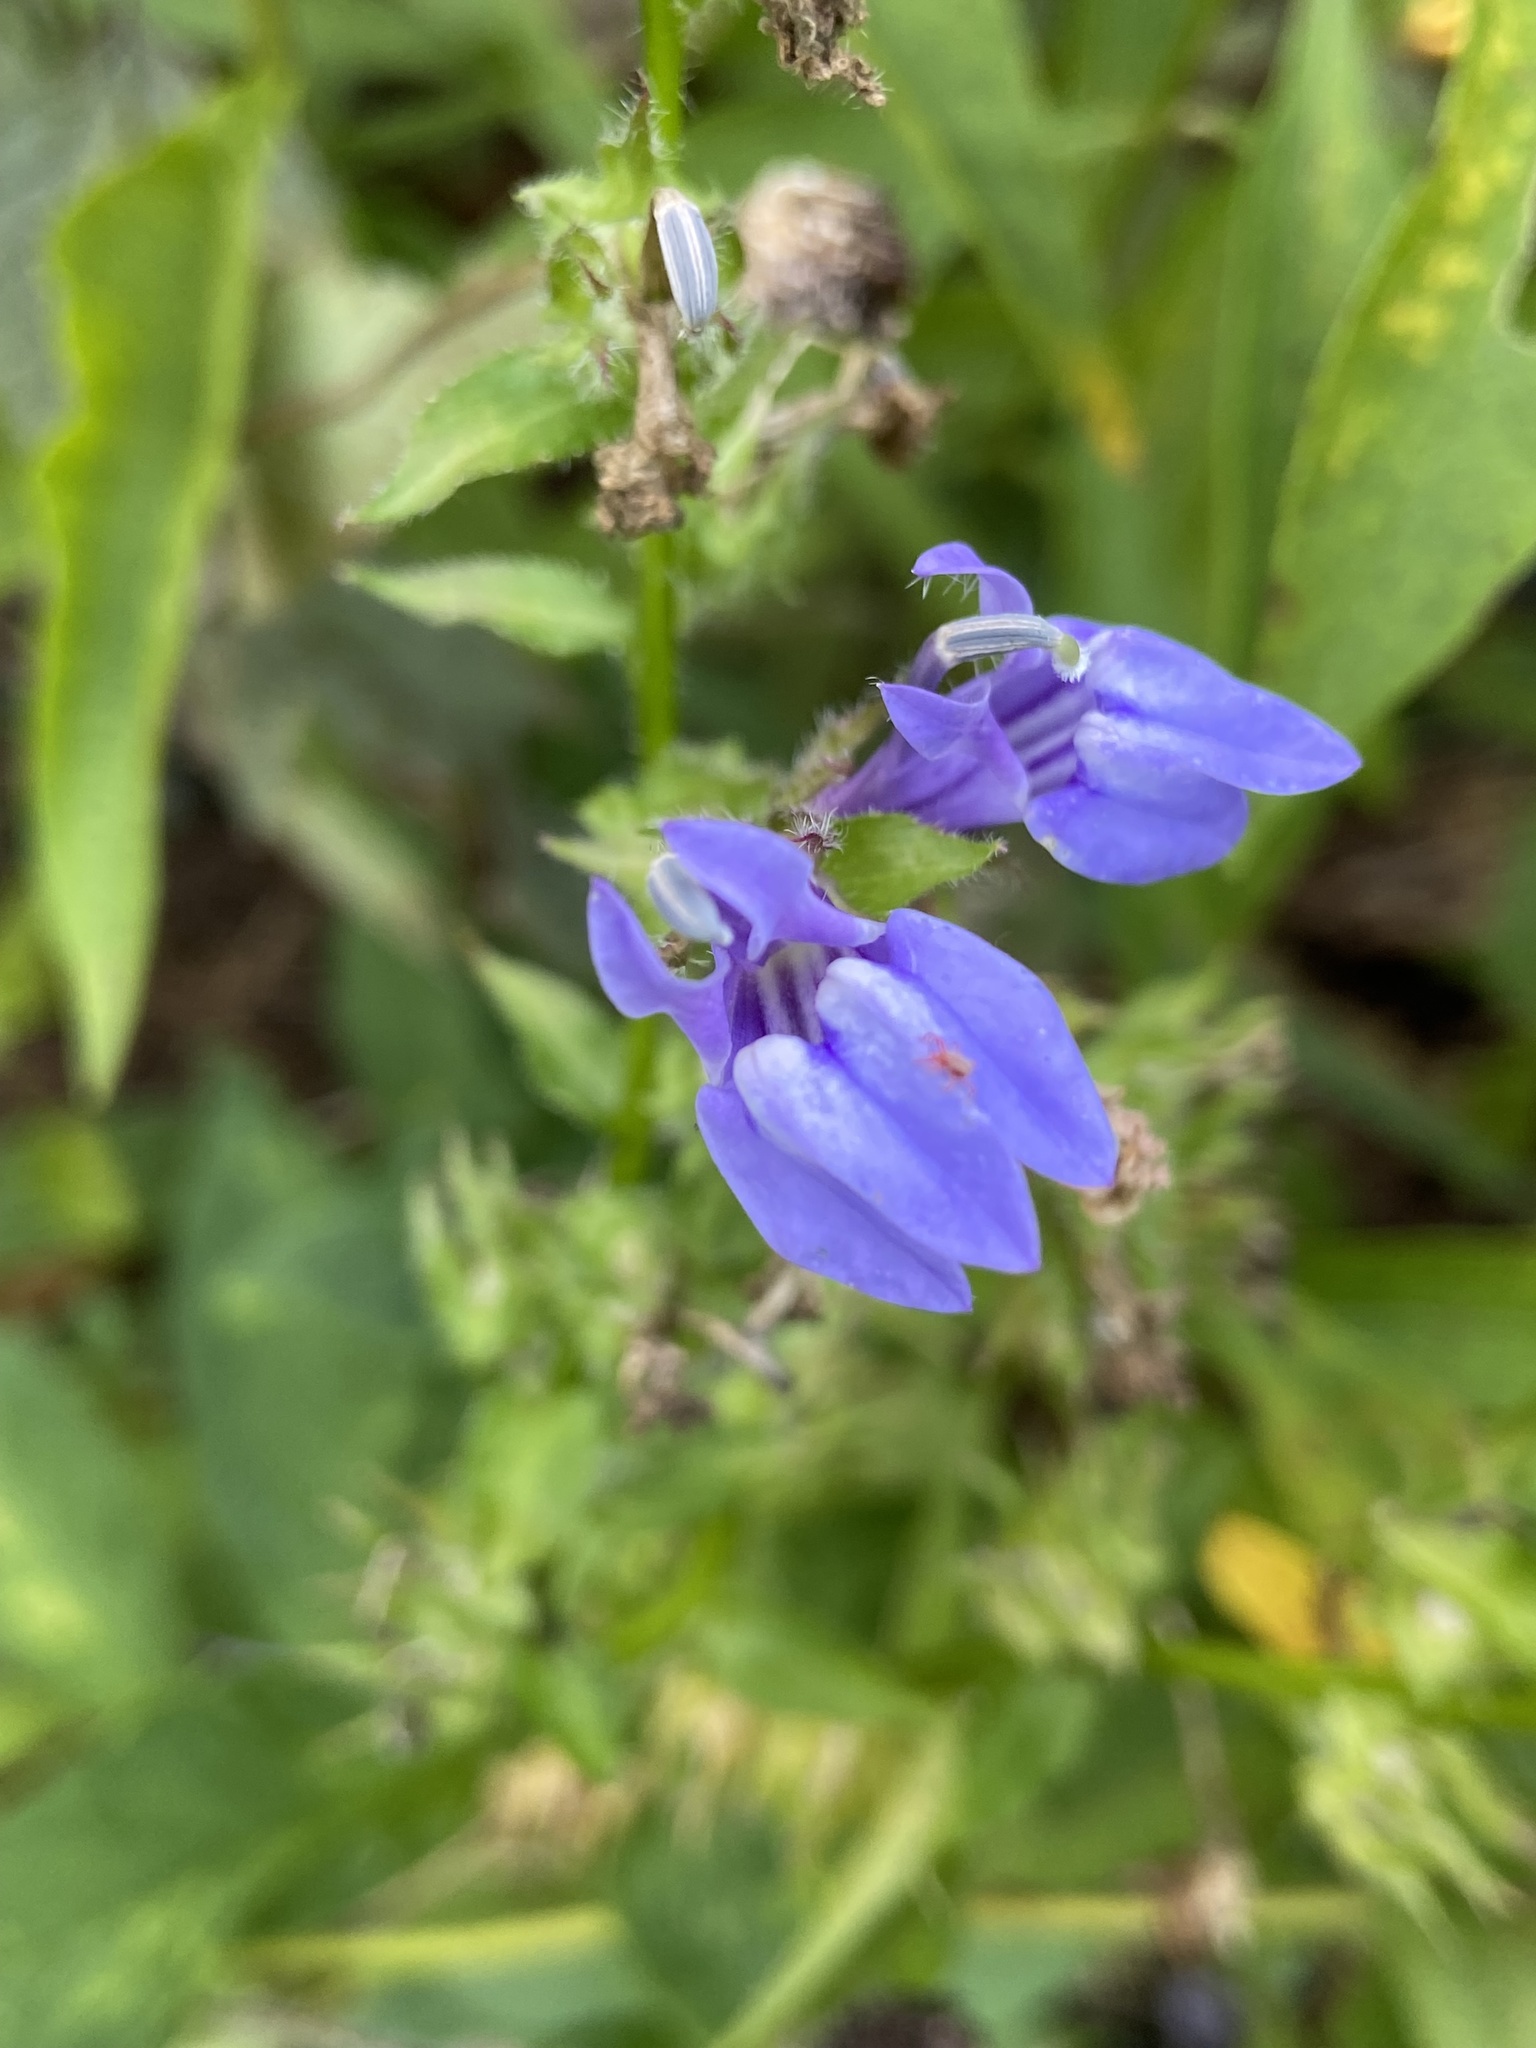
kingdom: Plantae
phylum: Tracheophyta
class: Magnoliopsida
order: Asterales
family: Campanulaceae
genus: Lobelia
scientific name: Lobelia siphilitica
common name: Great lobelia
